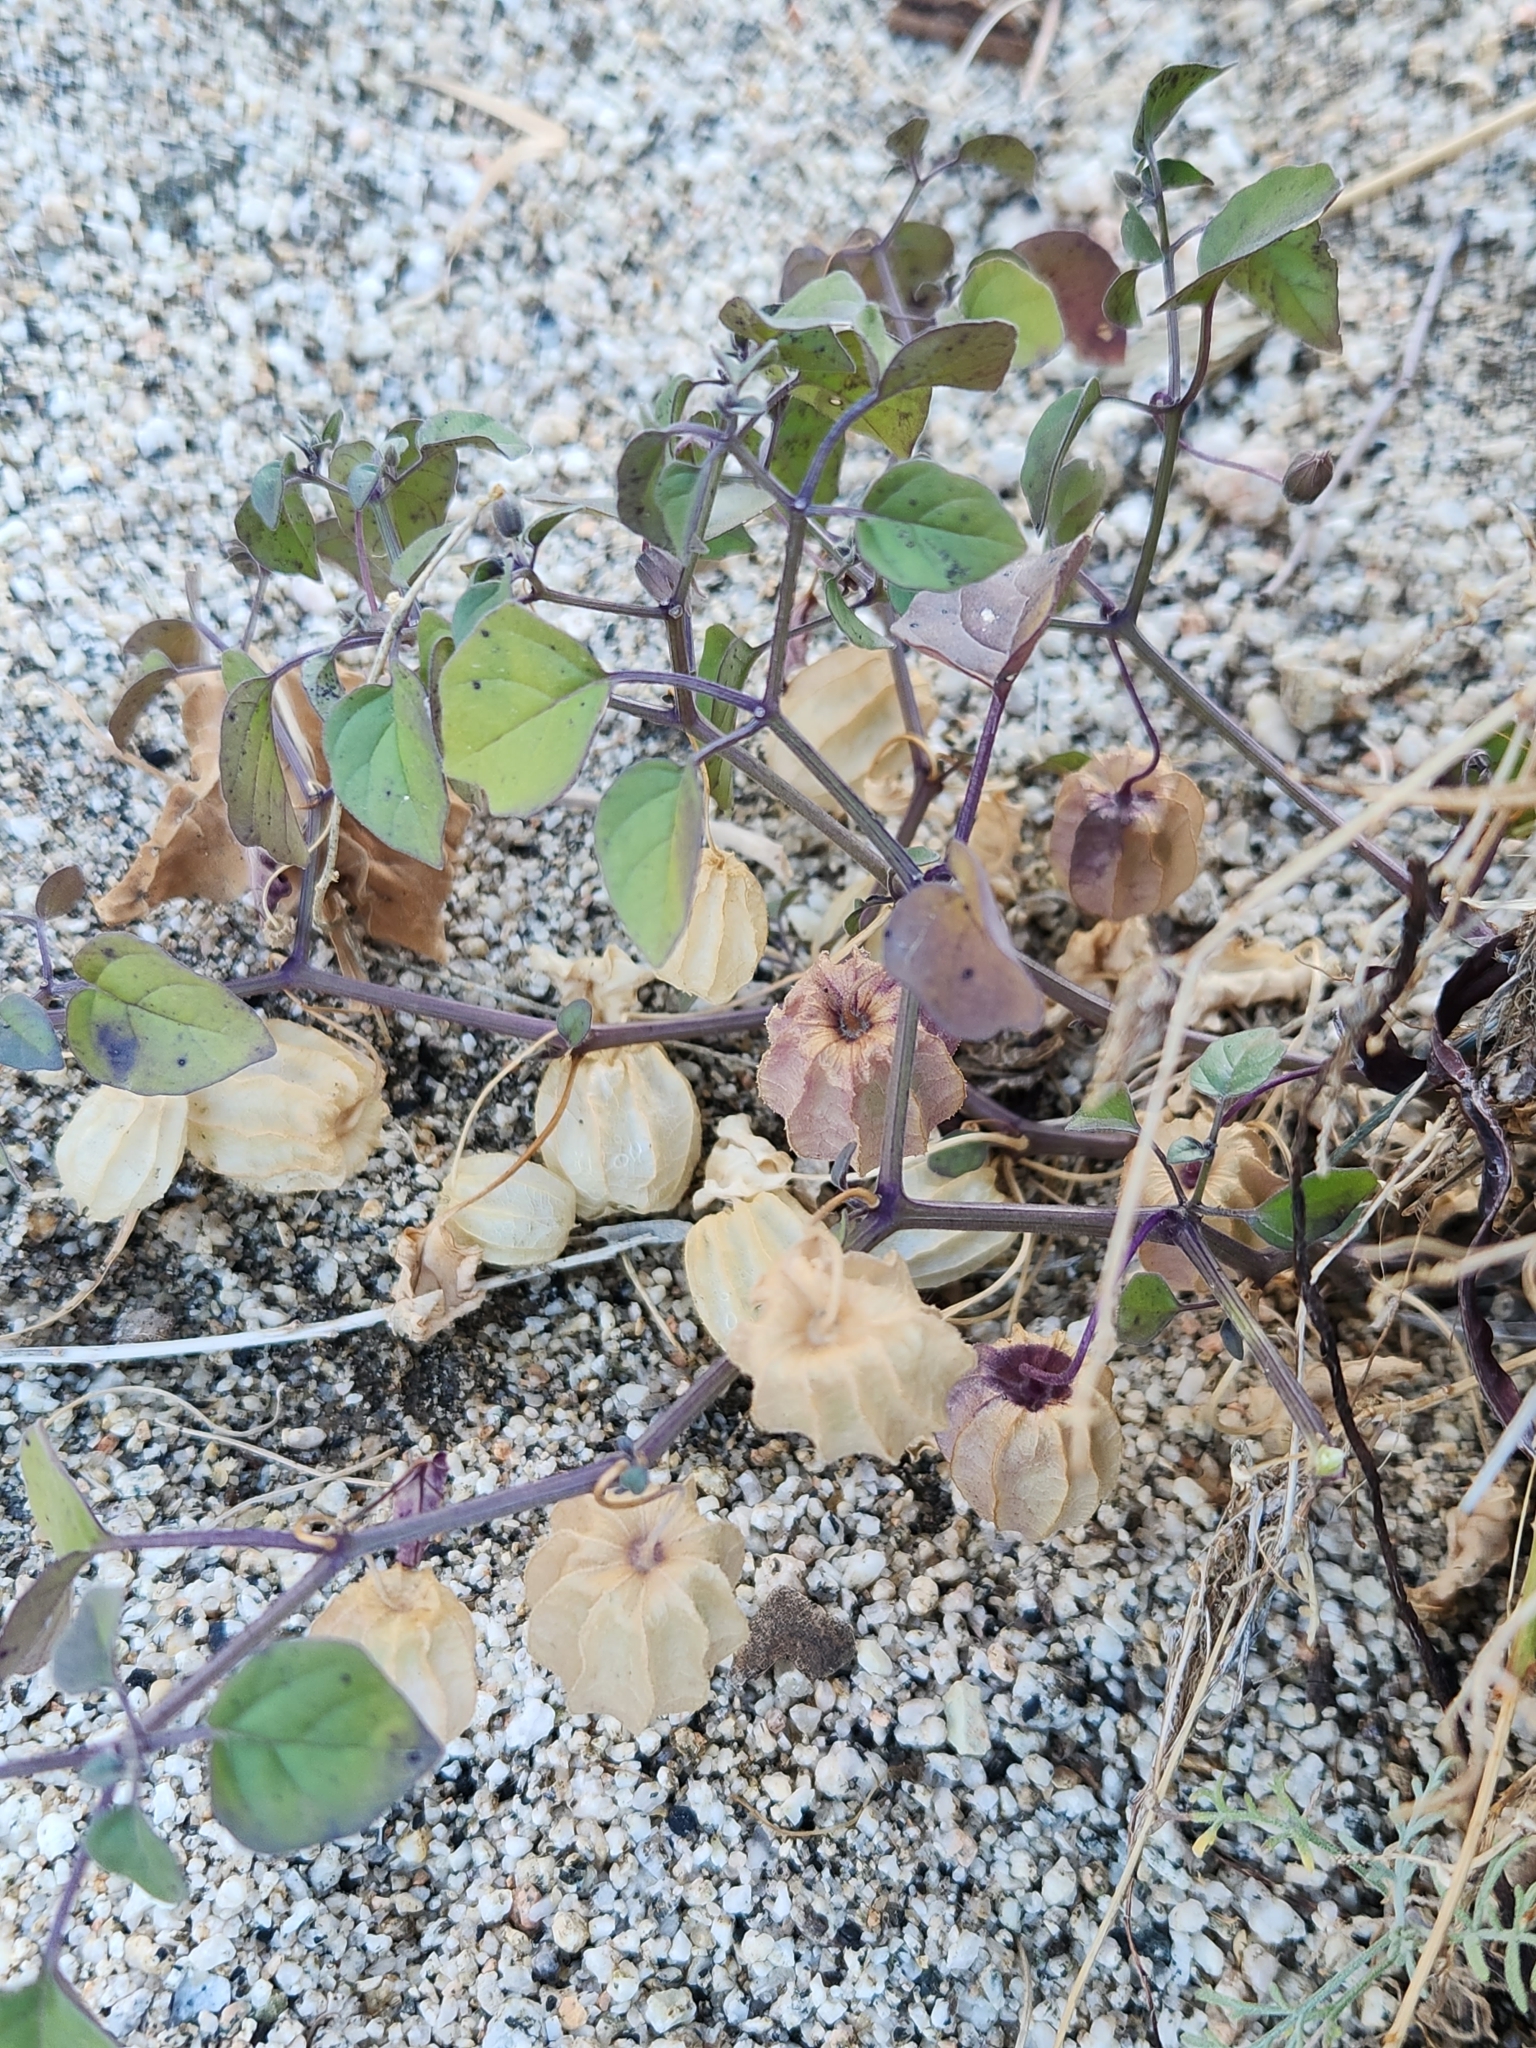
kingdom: Plantae
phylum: Tracheophyta
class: Magnoliopsida
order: Solanales
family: Solanaceae
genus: Physalis
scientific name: Physalis crassifolia
